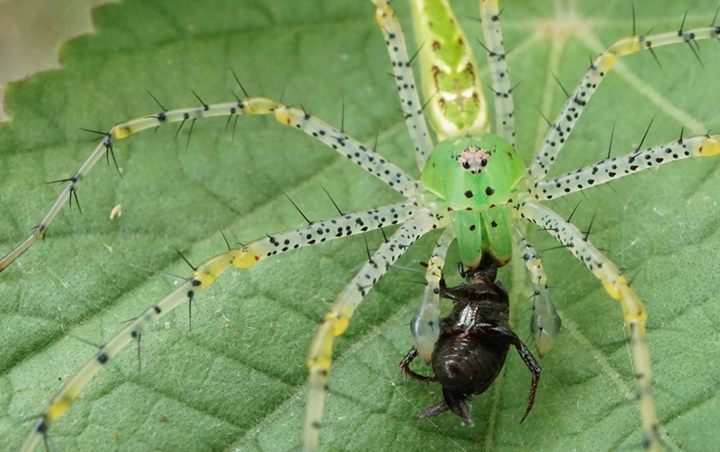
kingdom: Animalia
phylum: Arthropoda
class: Arachnida
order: Araneae
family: Oxyopidae
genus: Peucetia
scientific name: Peucetia viridans
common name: Lynx spiders
